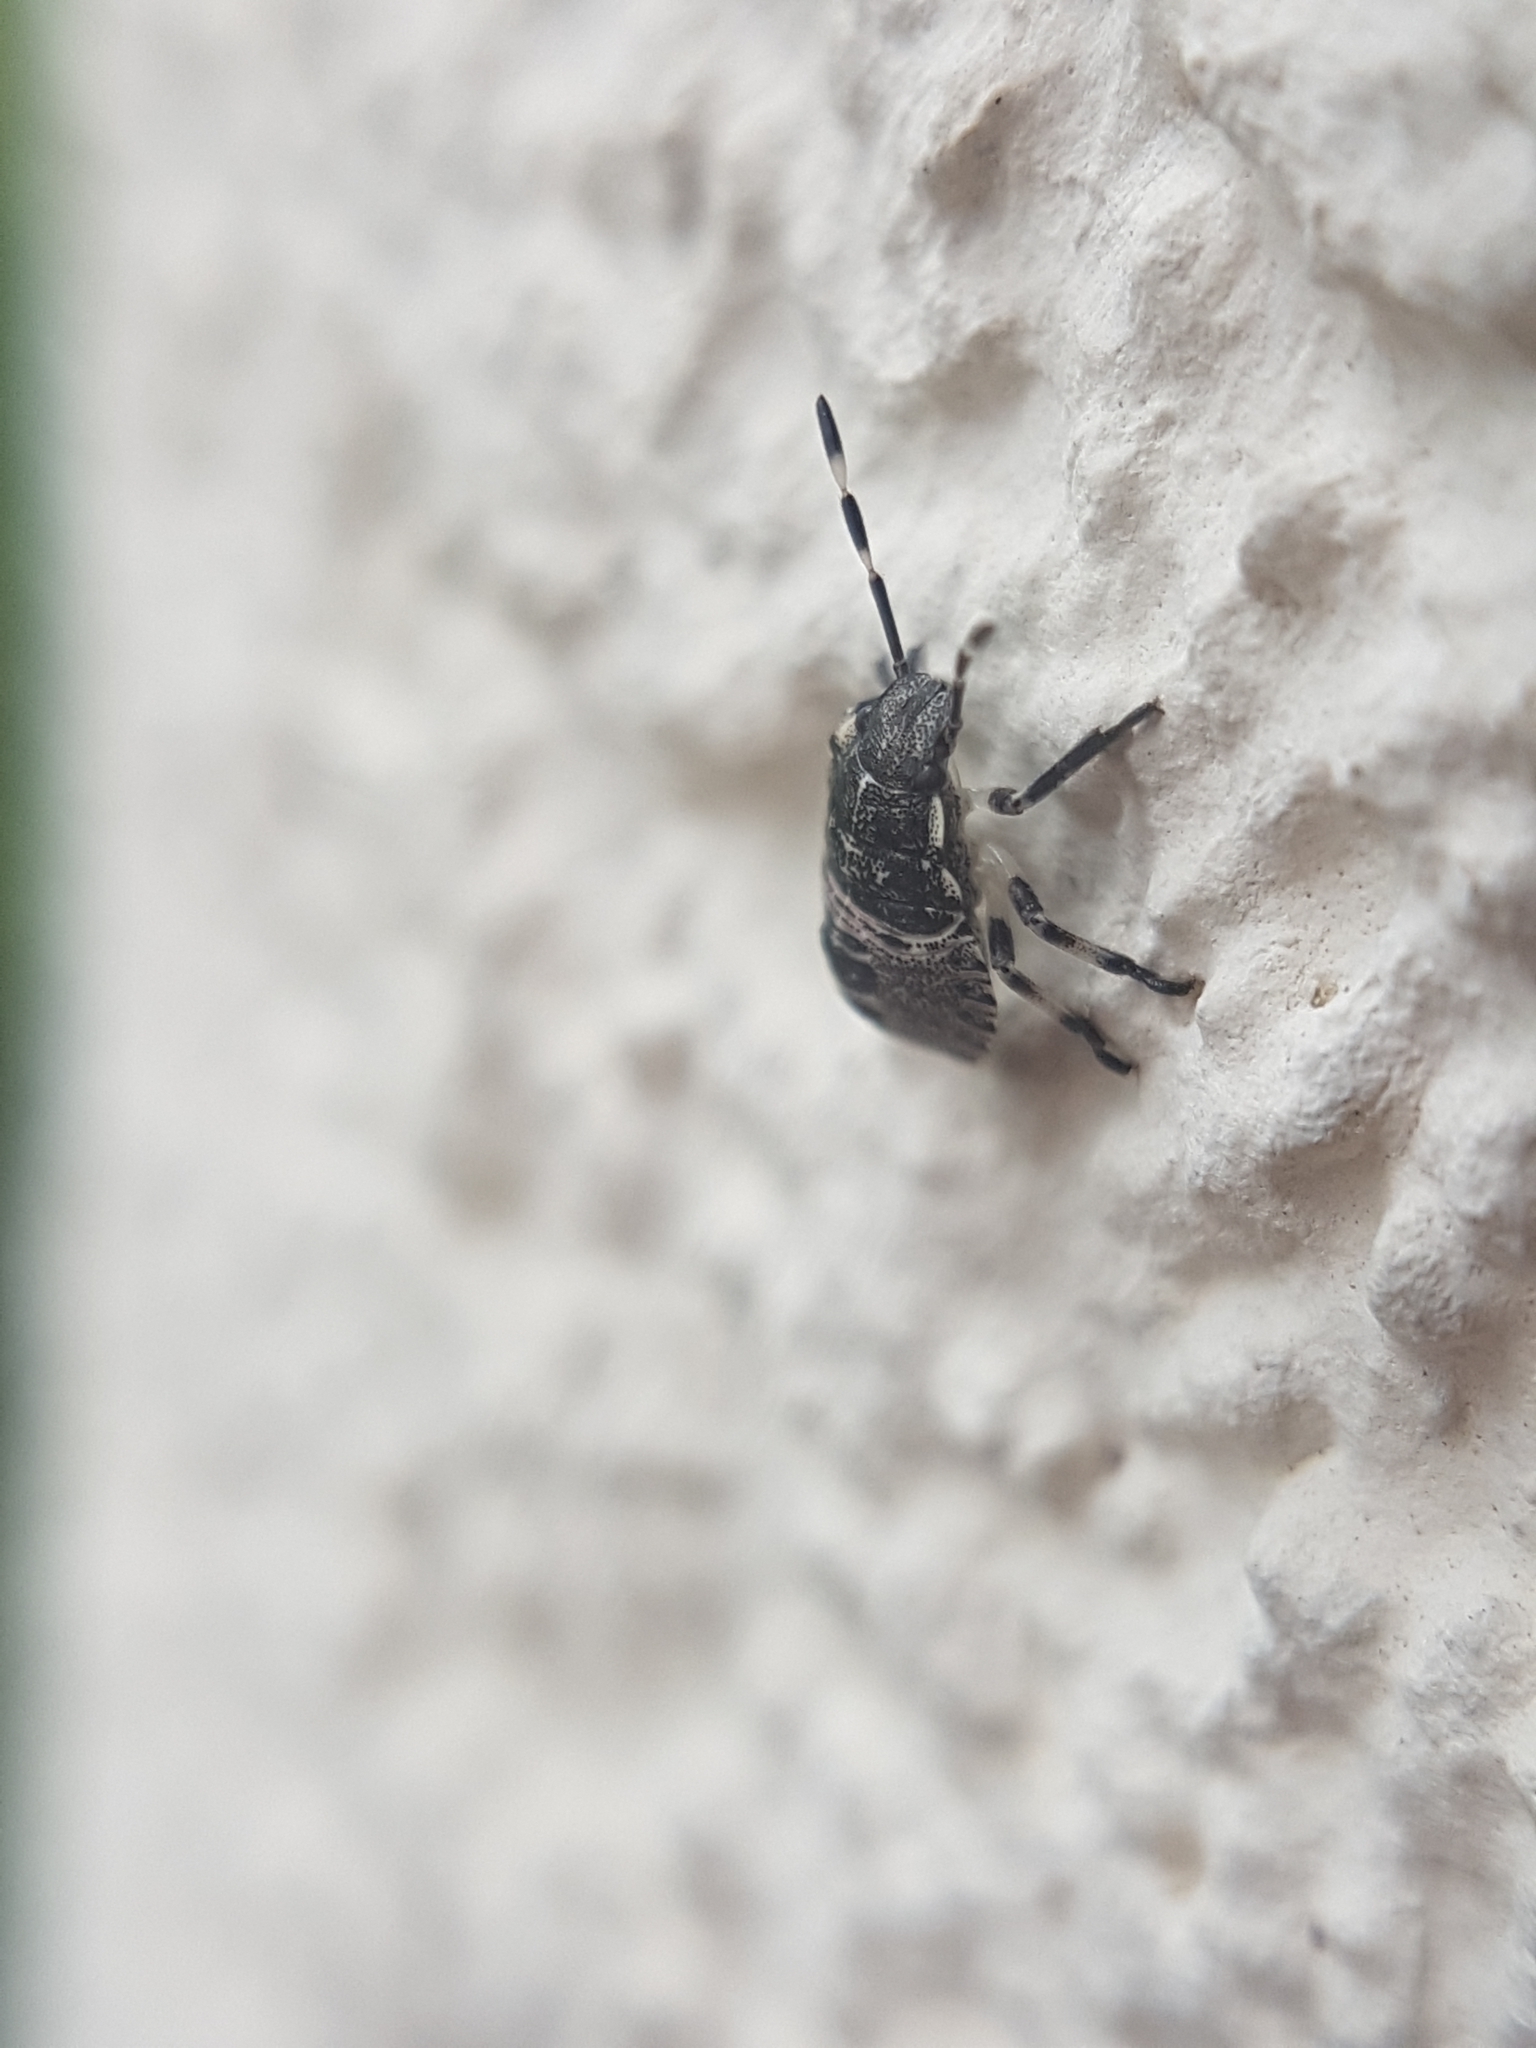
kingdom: Animalia
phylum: Arthropoda
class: Insecta
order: Hemiptera
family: Pentatomidae
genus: Rhaphigaster
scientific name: Rhaphigaster nebulosa
